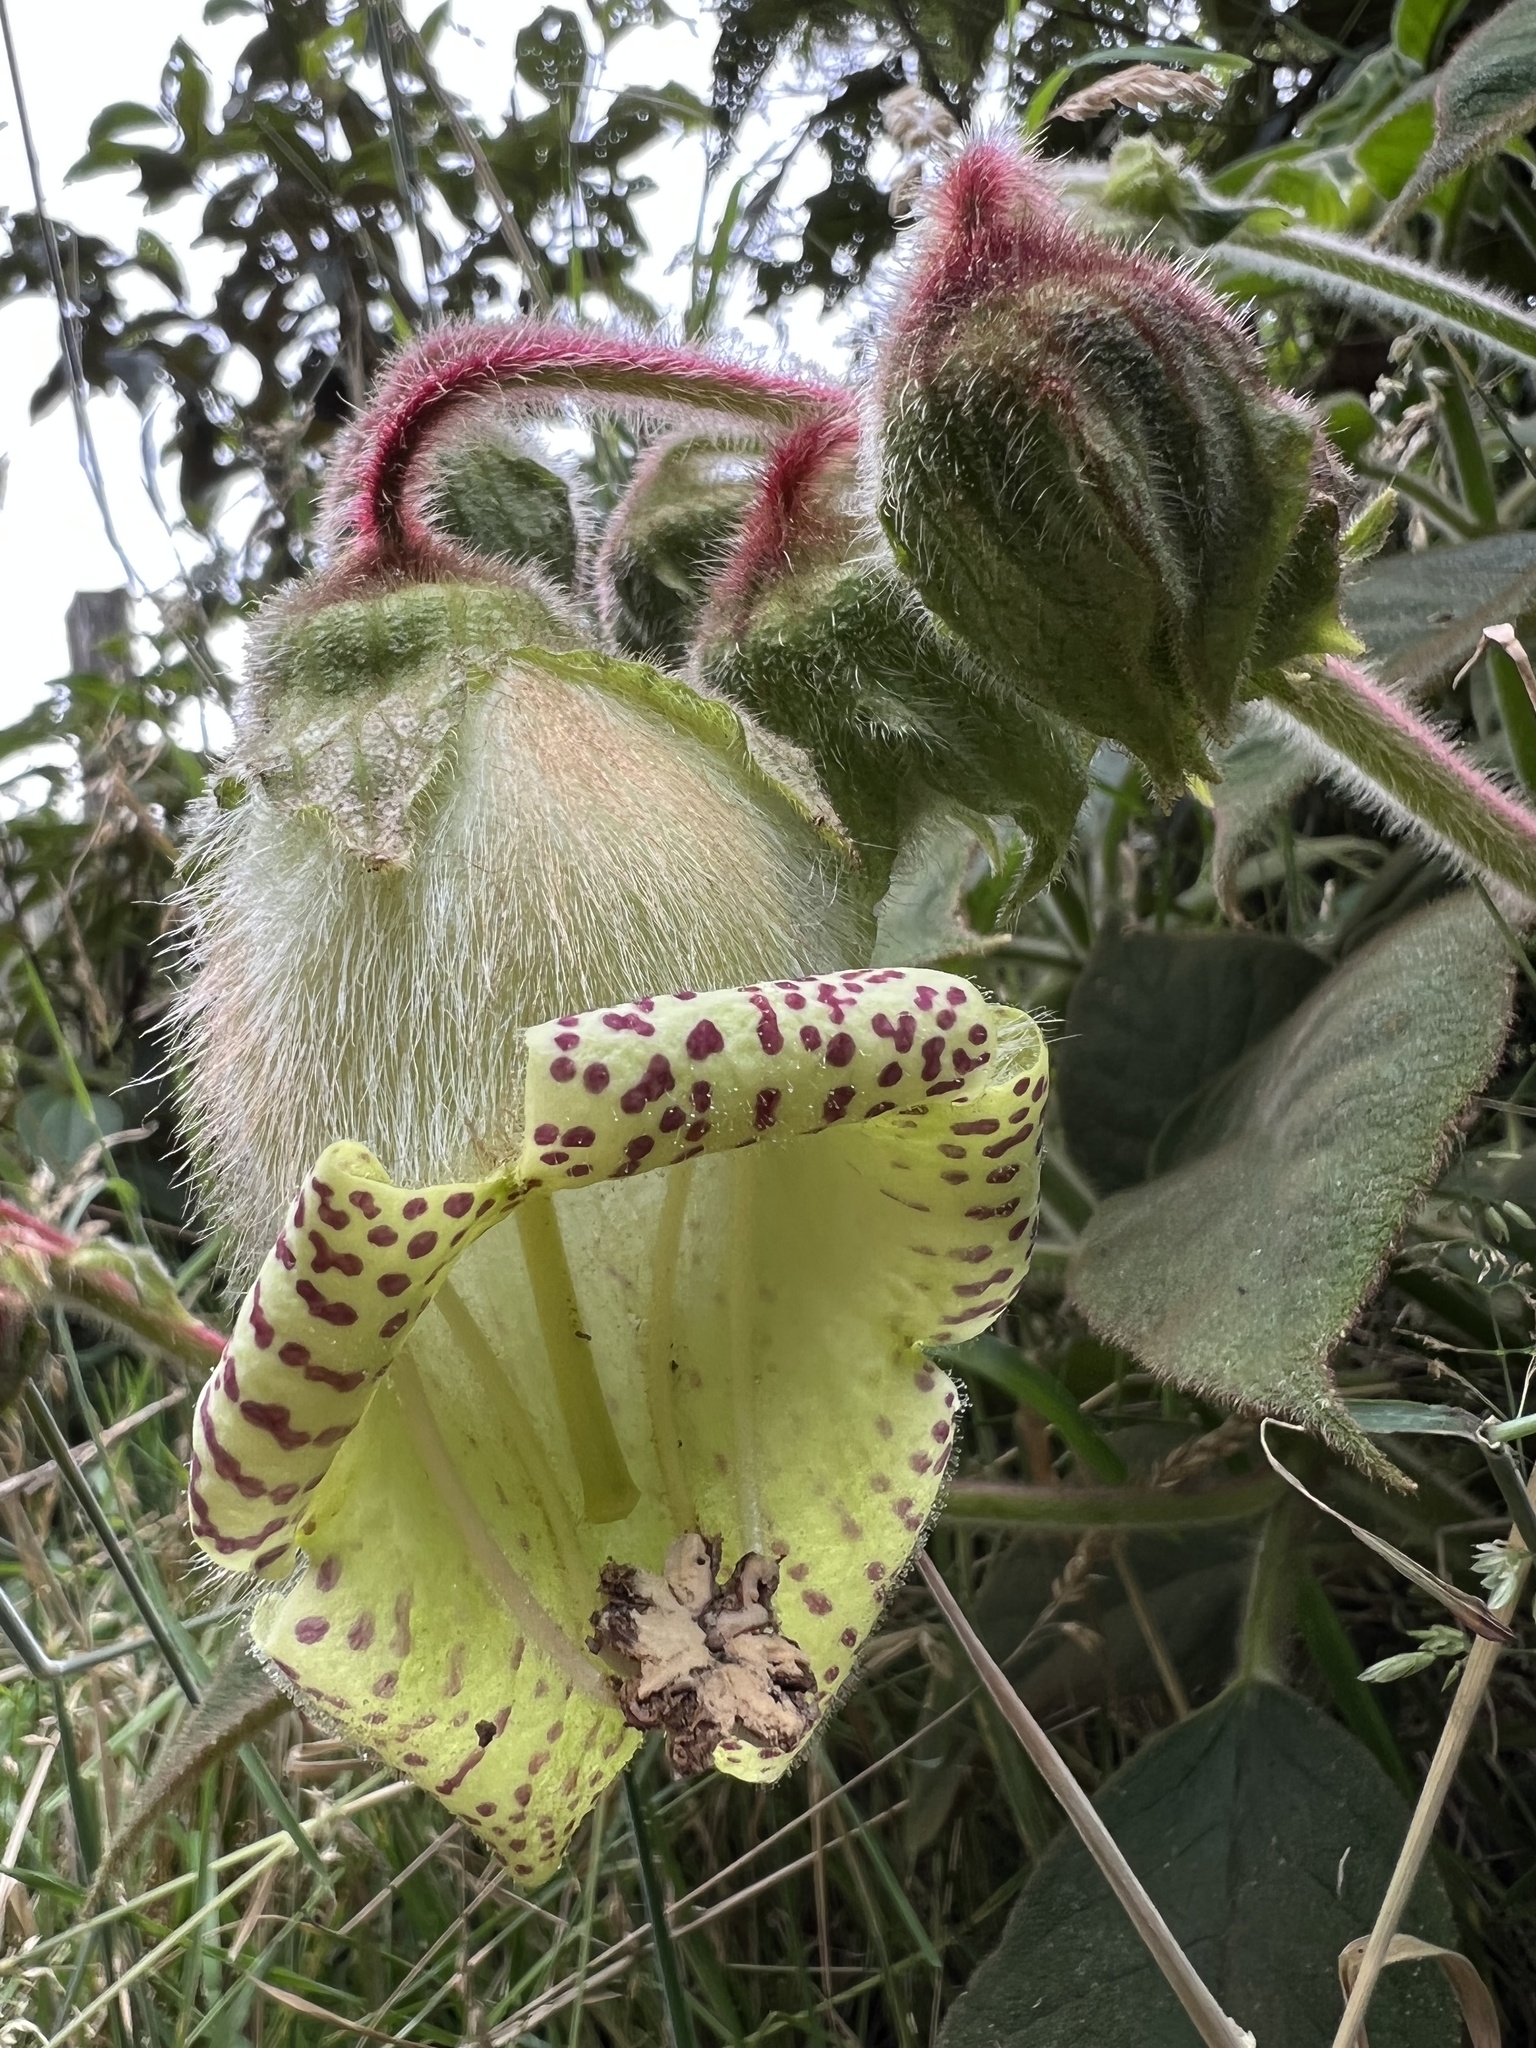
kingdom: Plantae
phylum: Tracheophyta
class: Magnoliopsida
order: Lamiales
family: Gesneriaceae
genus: Kohleria
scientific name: Kohleria tigridia
